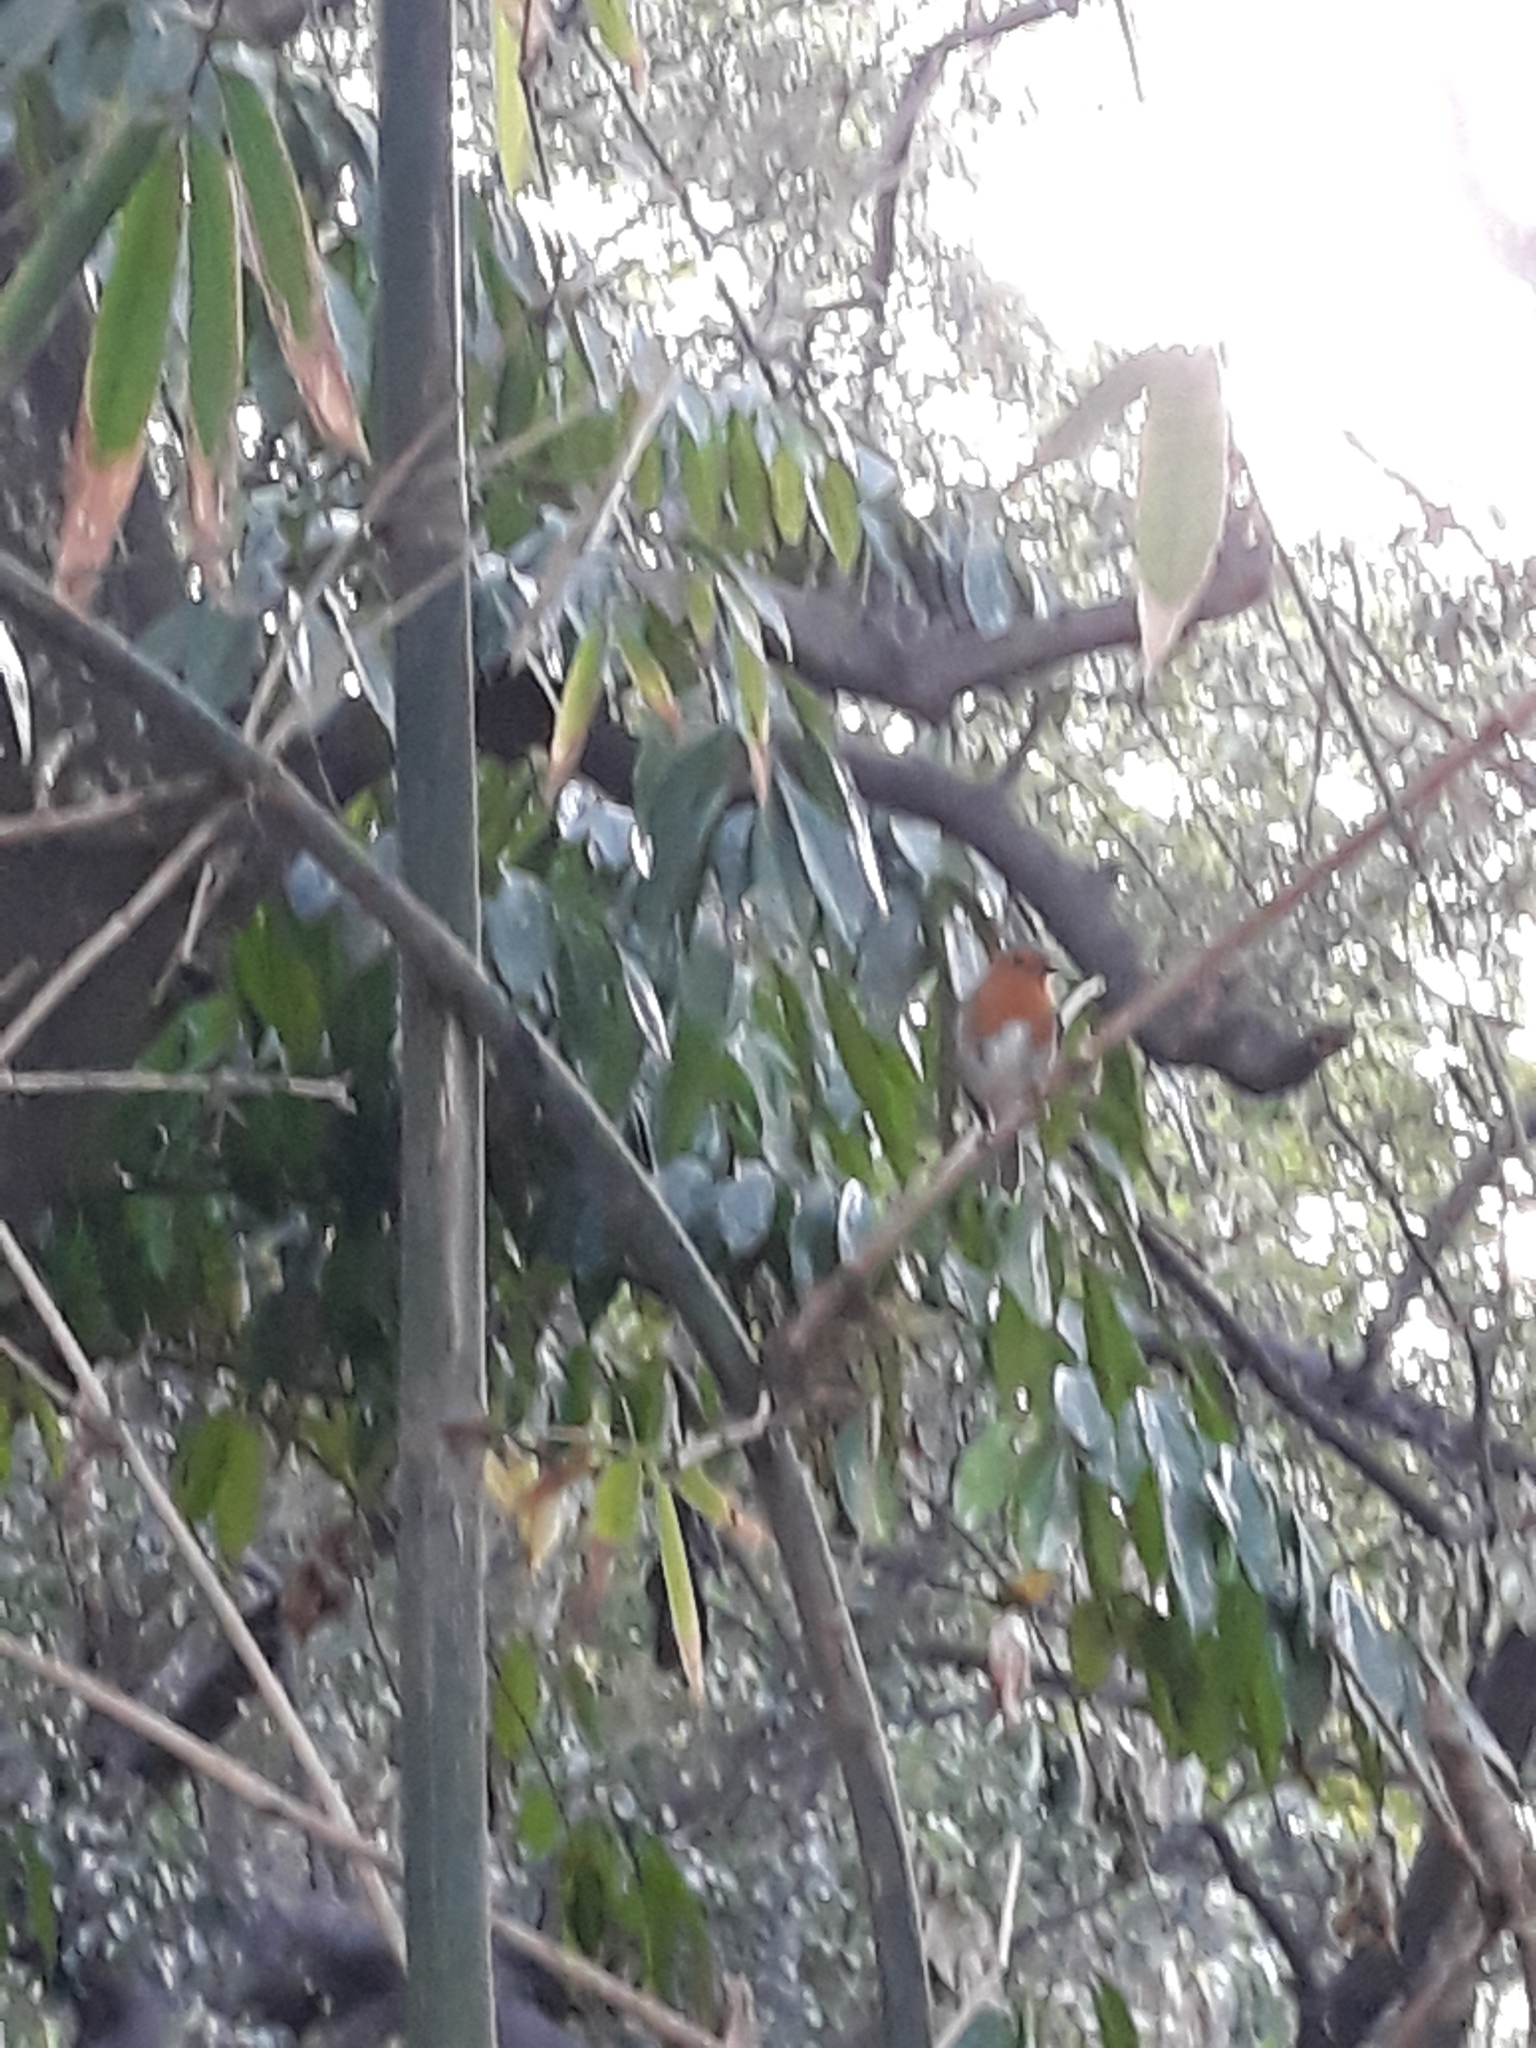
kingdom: Animalia
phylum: Chordata
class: Aves
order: Passeriformes
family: Muscicapidae
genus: Erithacus
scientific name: Erithacus rubecula
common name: European robin
